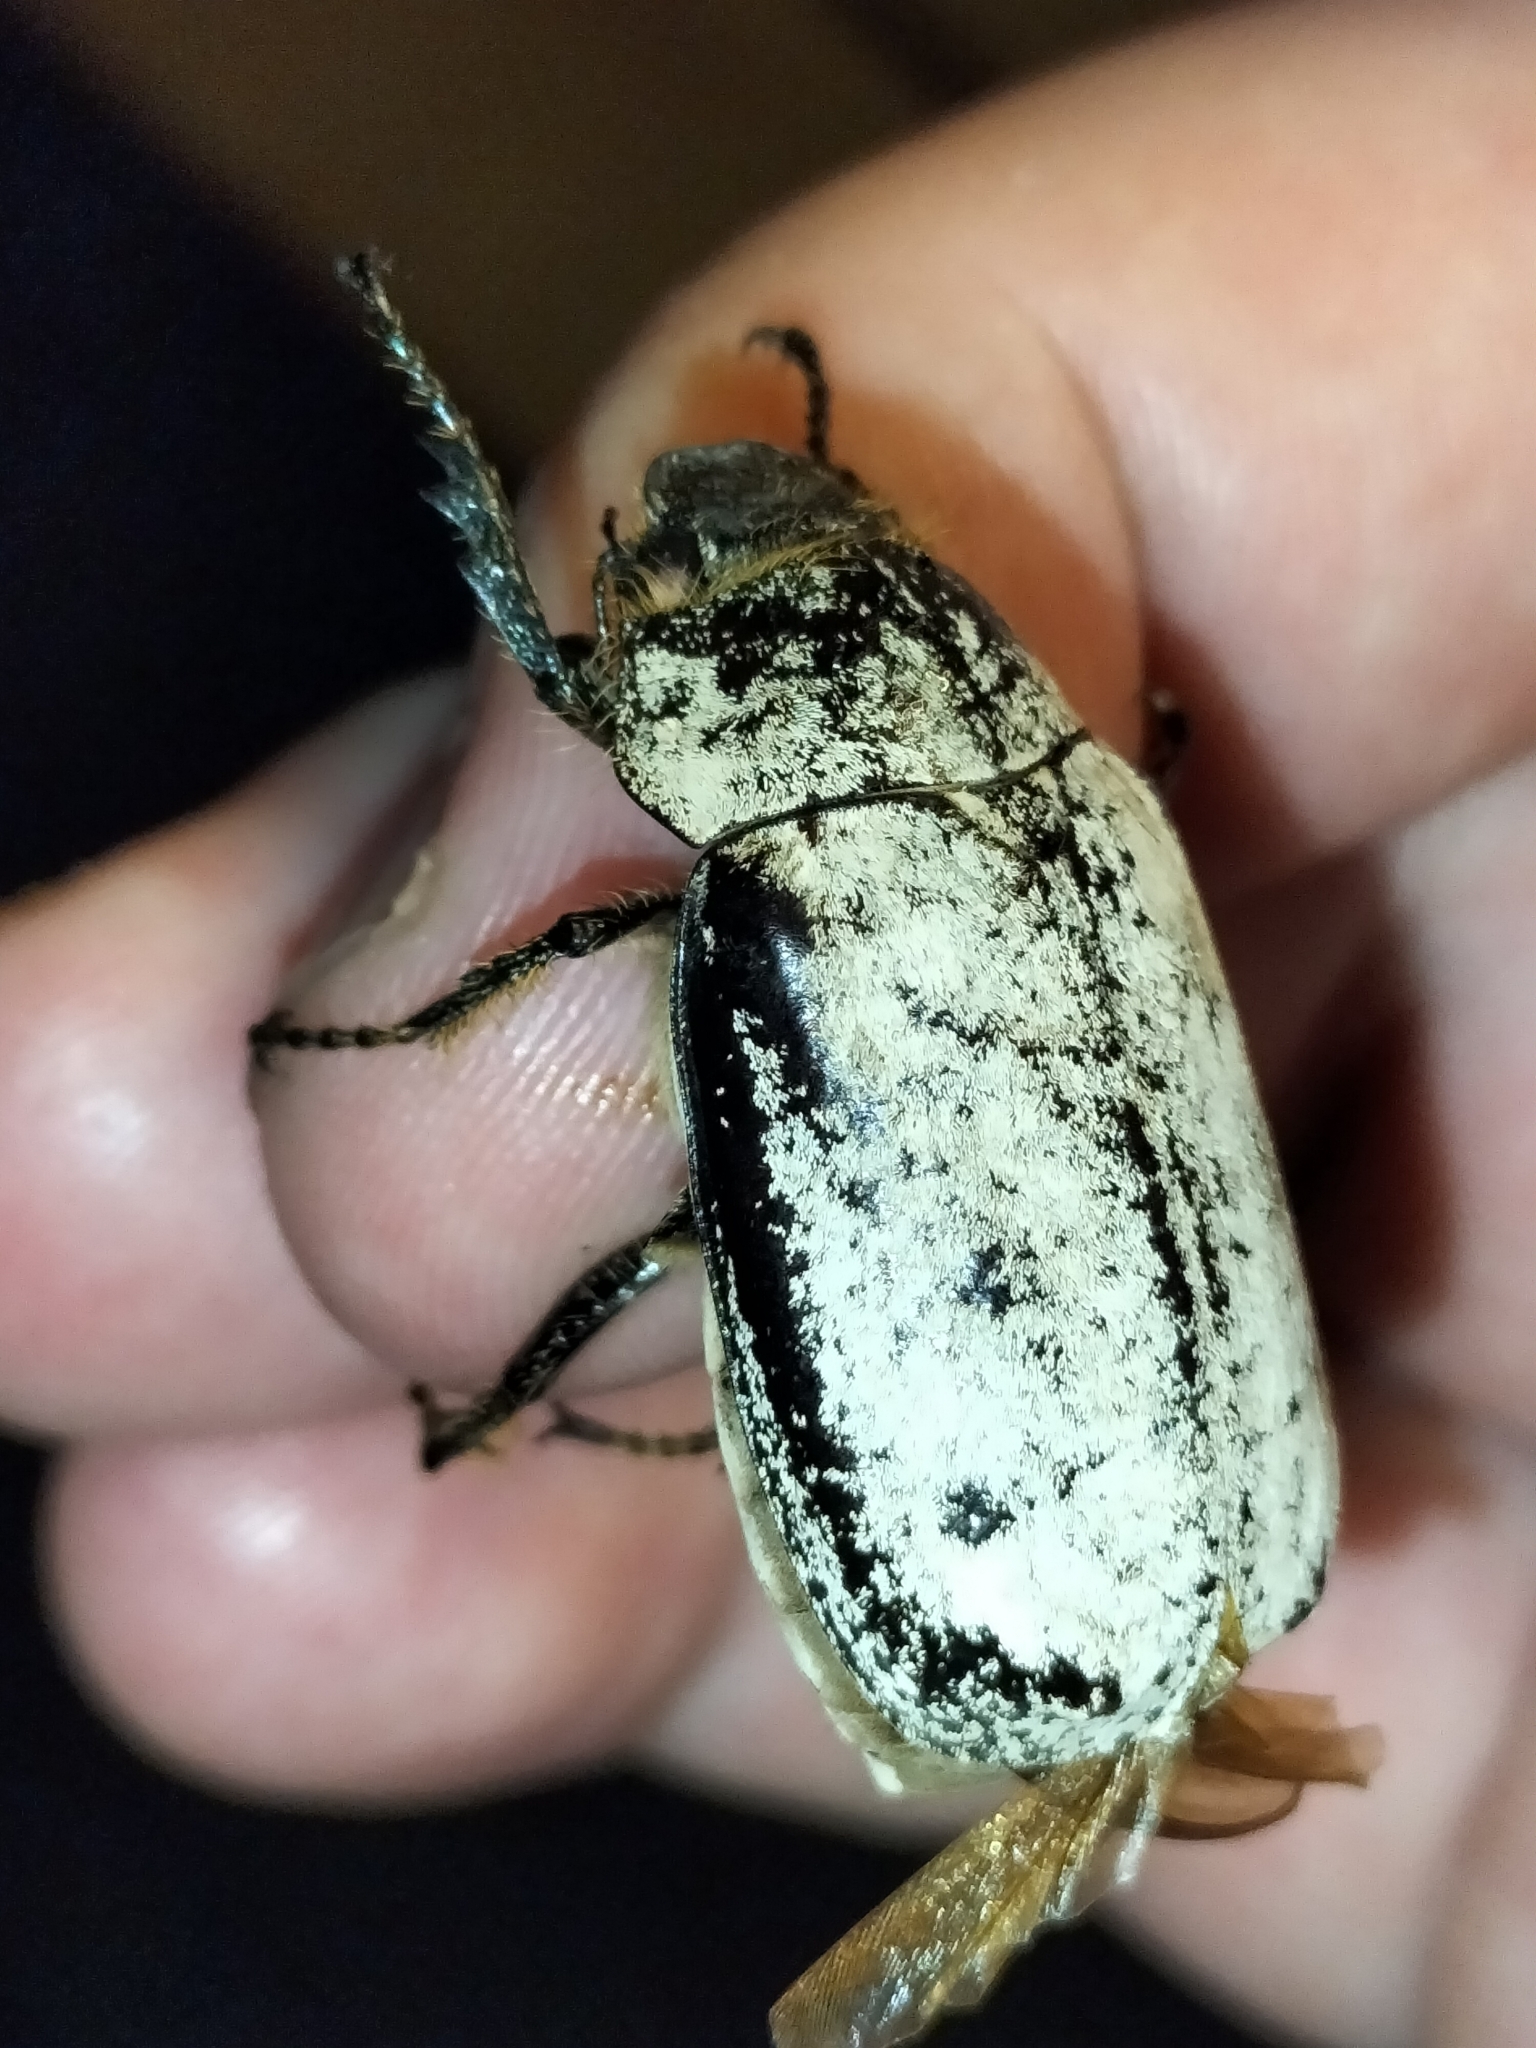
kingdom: Animalia
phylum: Arthropoda
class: Insecta
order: Coleoptera
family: Scarabaeidae
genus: Dermolepida
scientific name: Dermolepida albohirtum
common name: Greyback cane beetle
